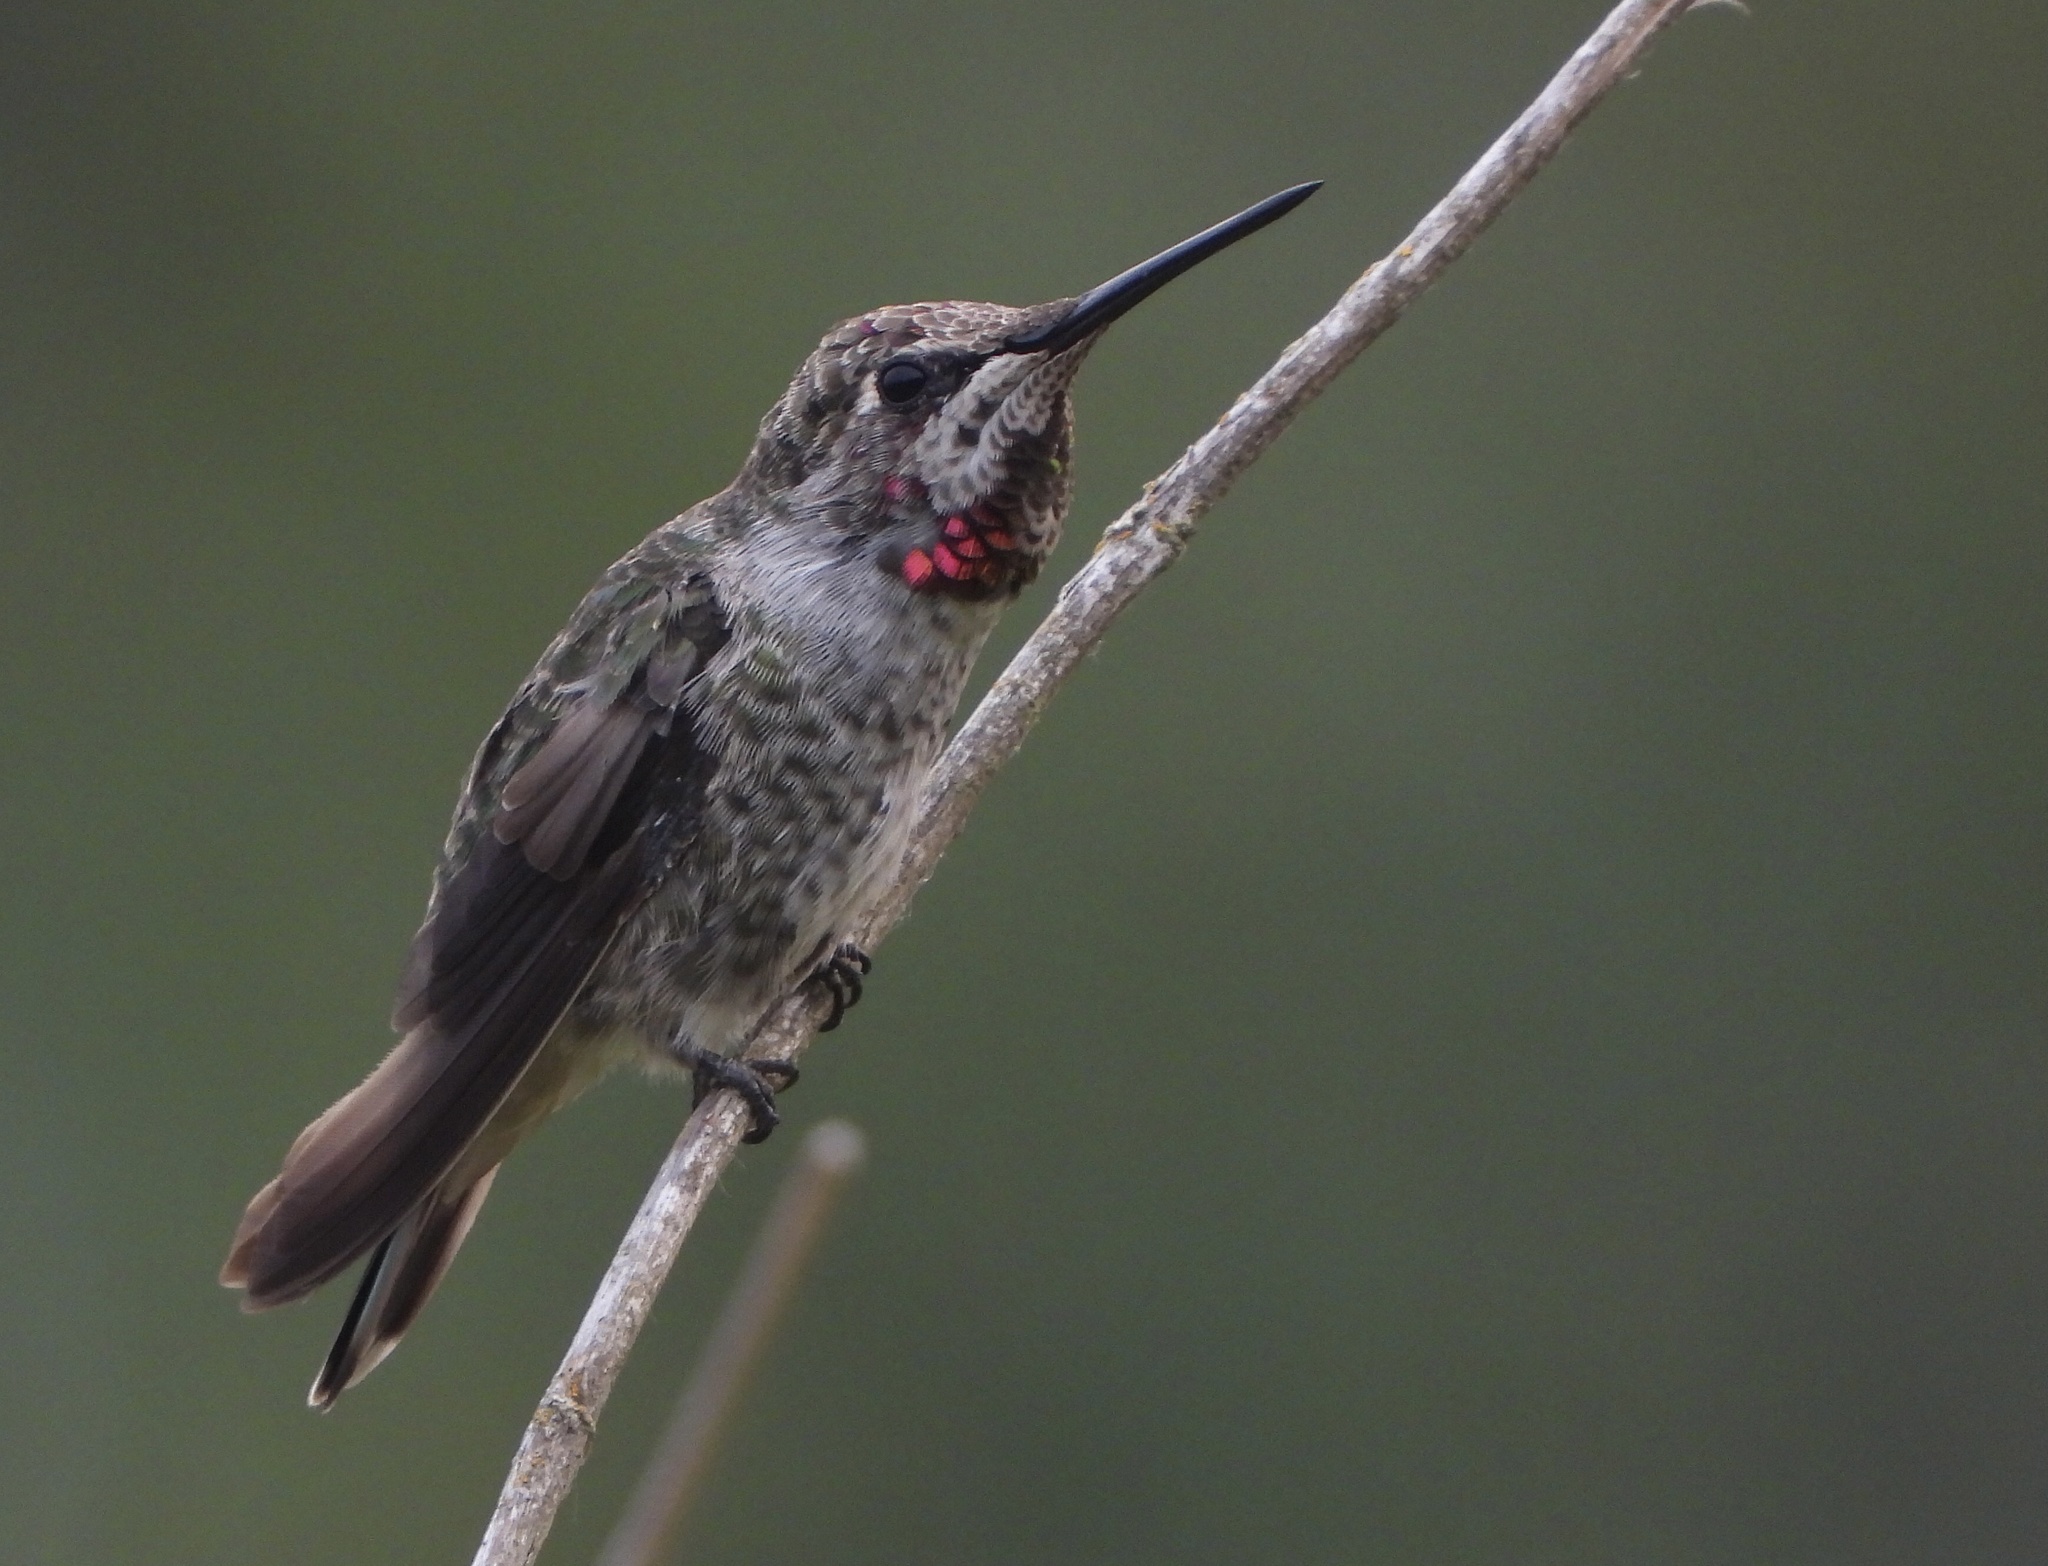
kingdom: Animalia
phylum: Chordata
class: Aves
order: Apodiformes
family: Trochilidae
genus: Calypte
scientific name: Calypte anna
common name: Anna's hummingbird
